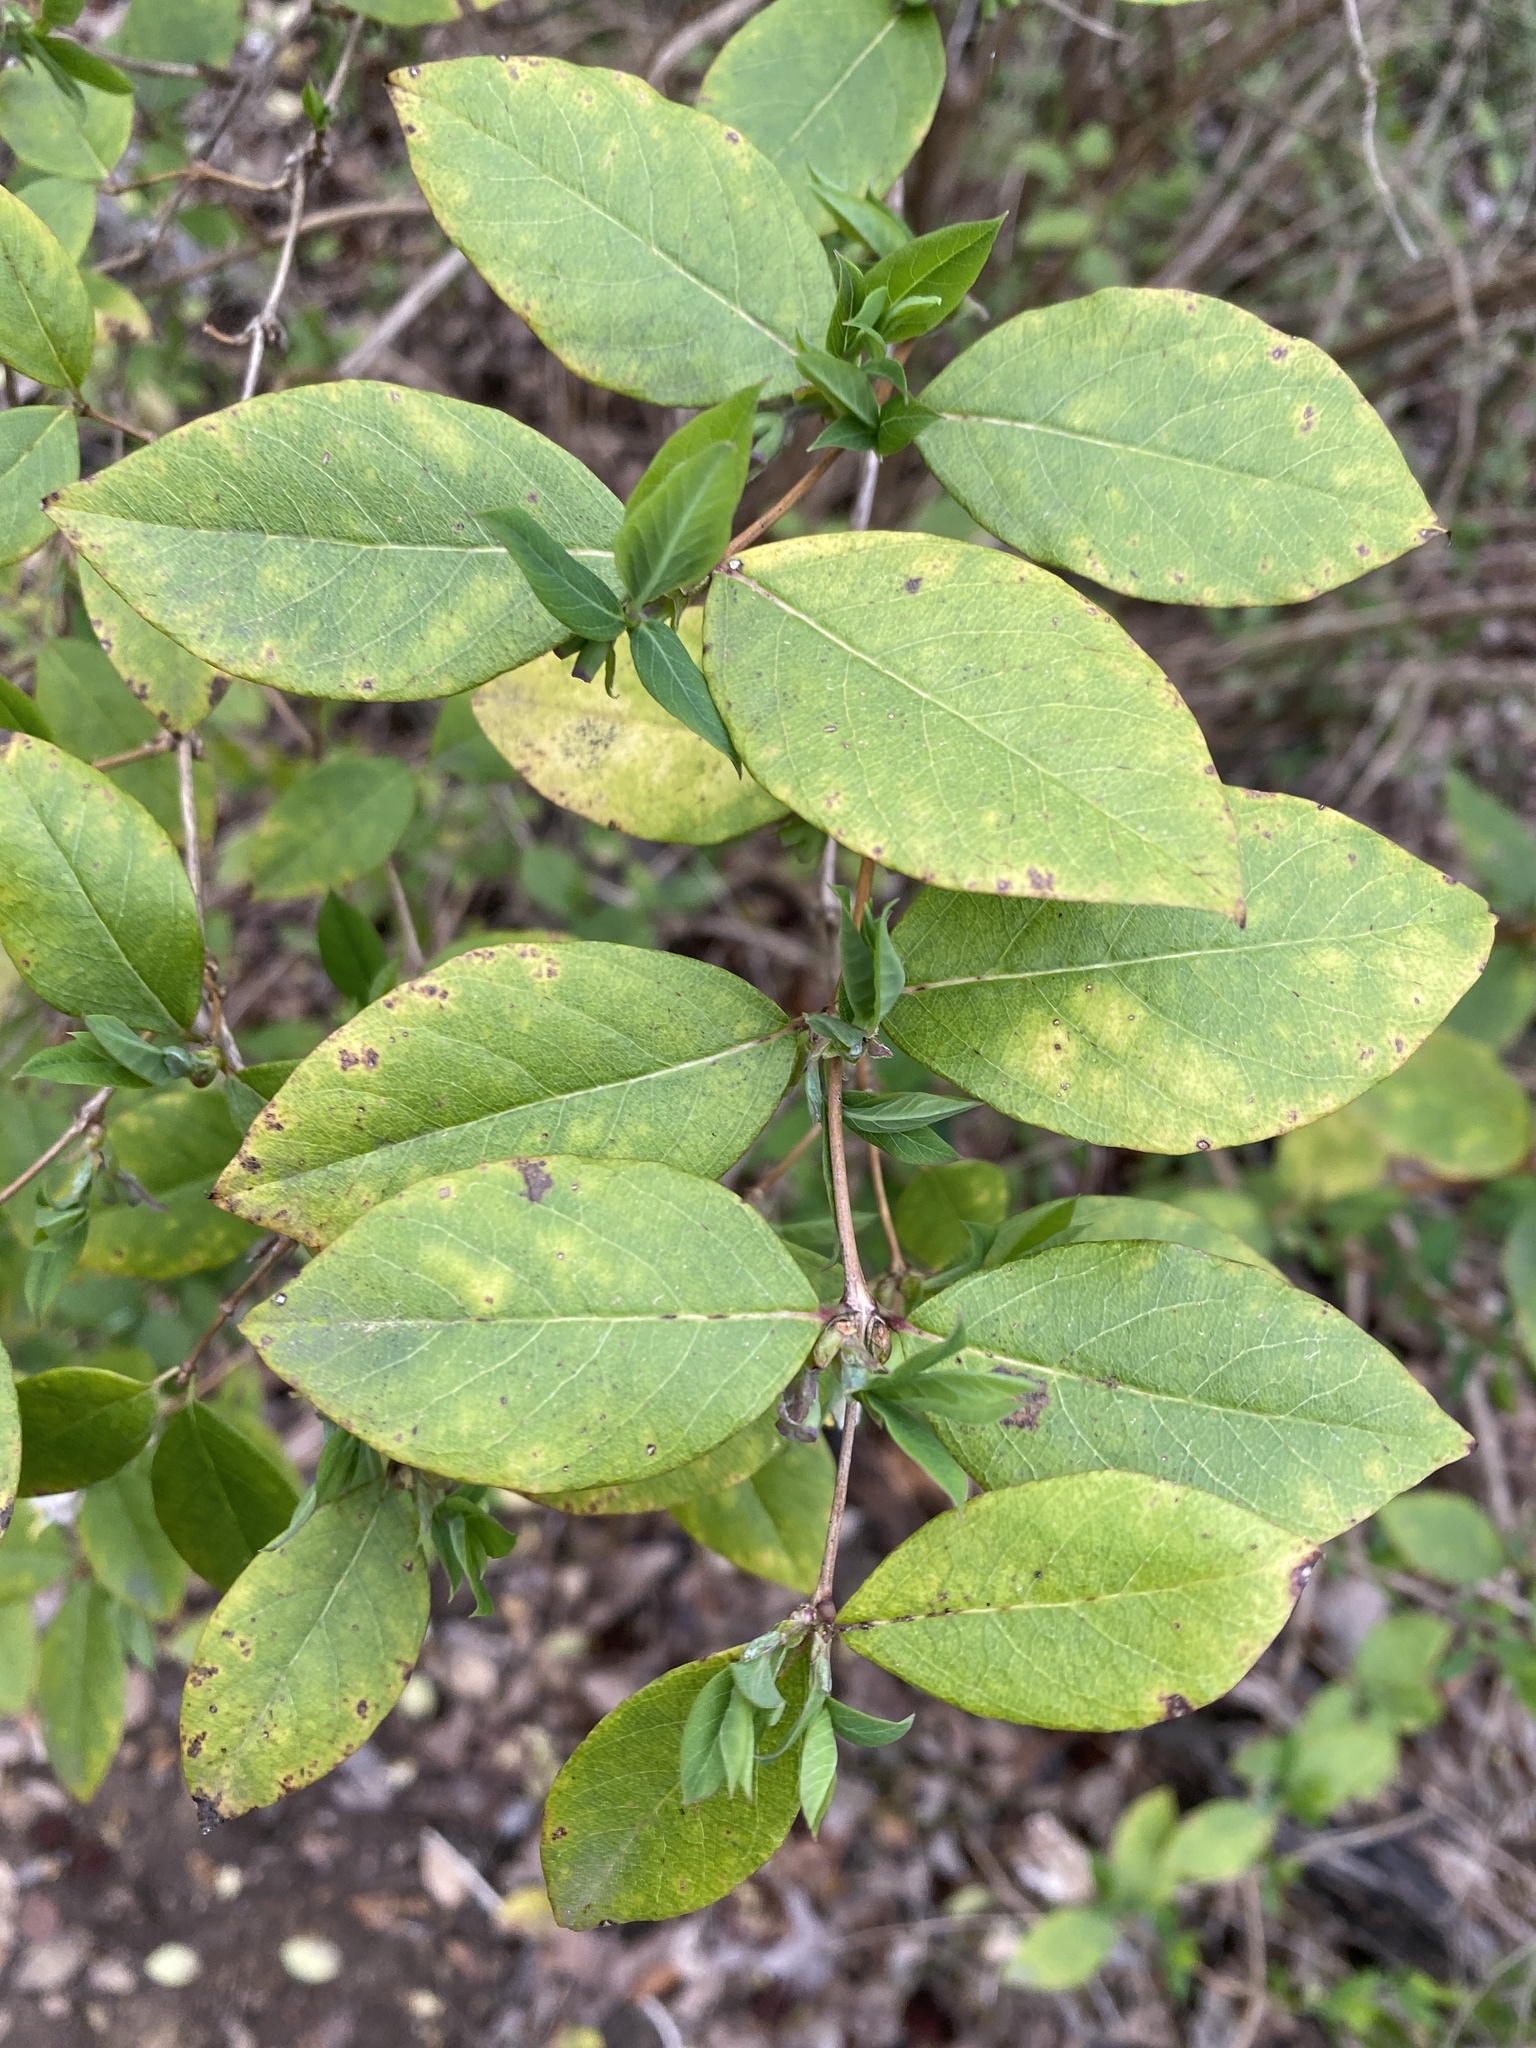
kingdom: Plantae
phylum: Tracheophyta
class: Magnoliopsida
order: Dipsacales
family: Caprifoliaceae
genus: Lonicera
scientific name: Lonicera fragrantissima
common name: Fragrant honeysuckle
